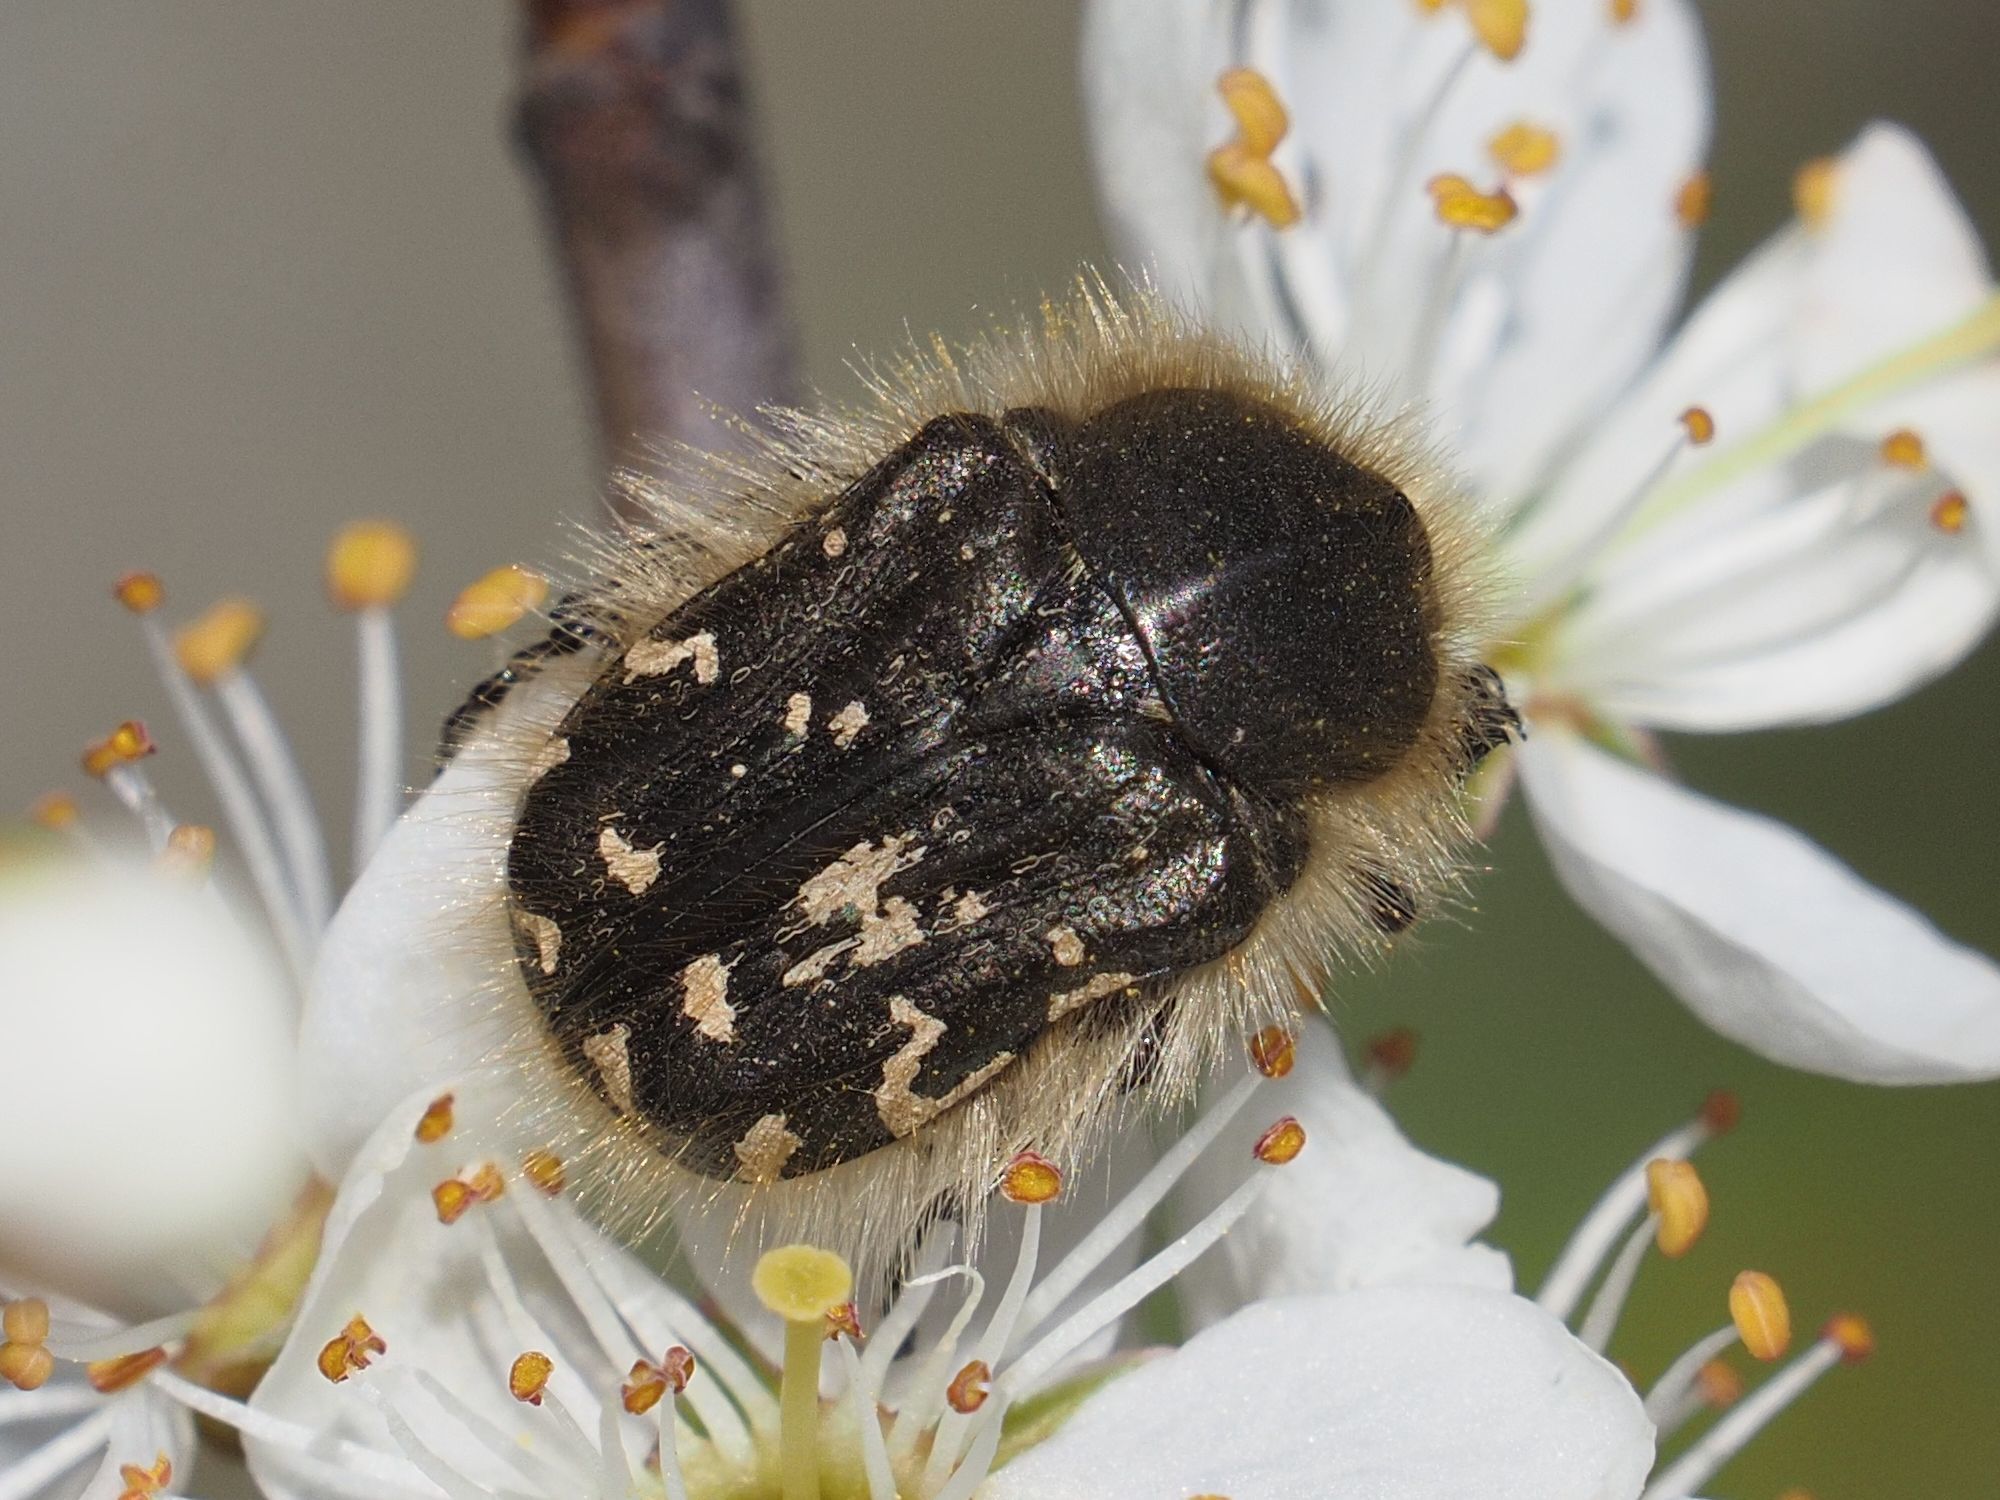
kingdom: Animalia
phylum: Arthropoda
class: Insecta
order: Coleoptera
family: Scarabaeidae
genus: Tropinota
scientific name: Tropinota hirta
